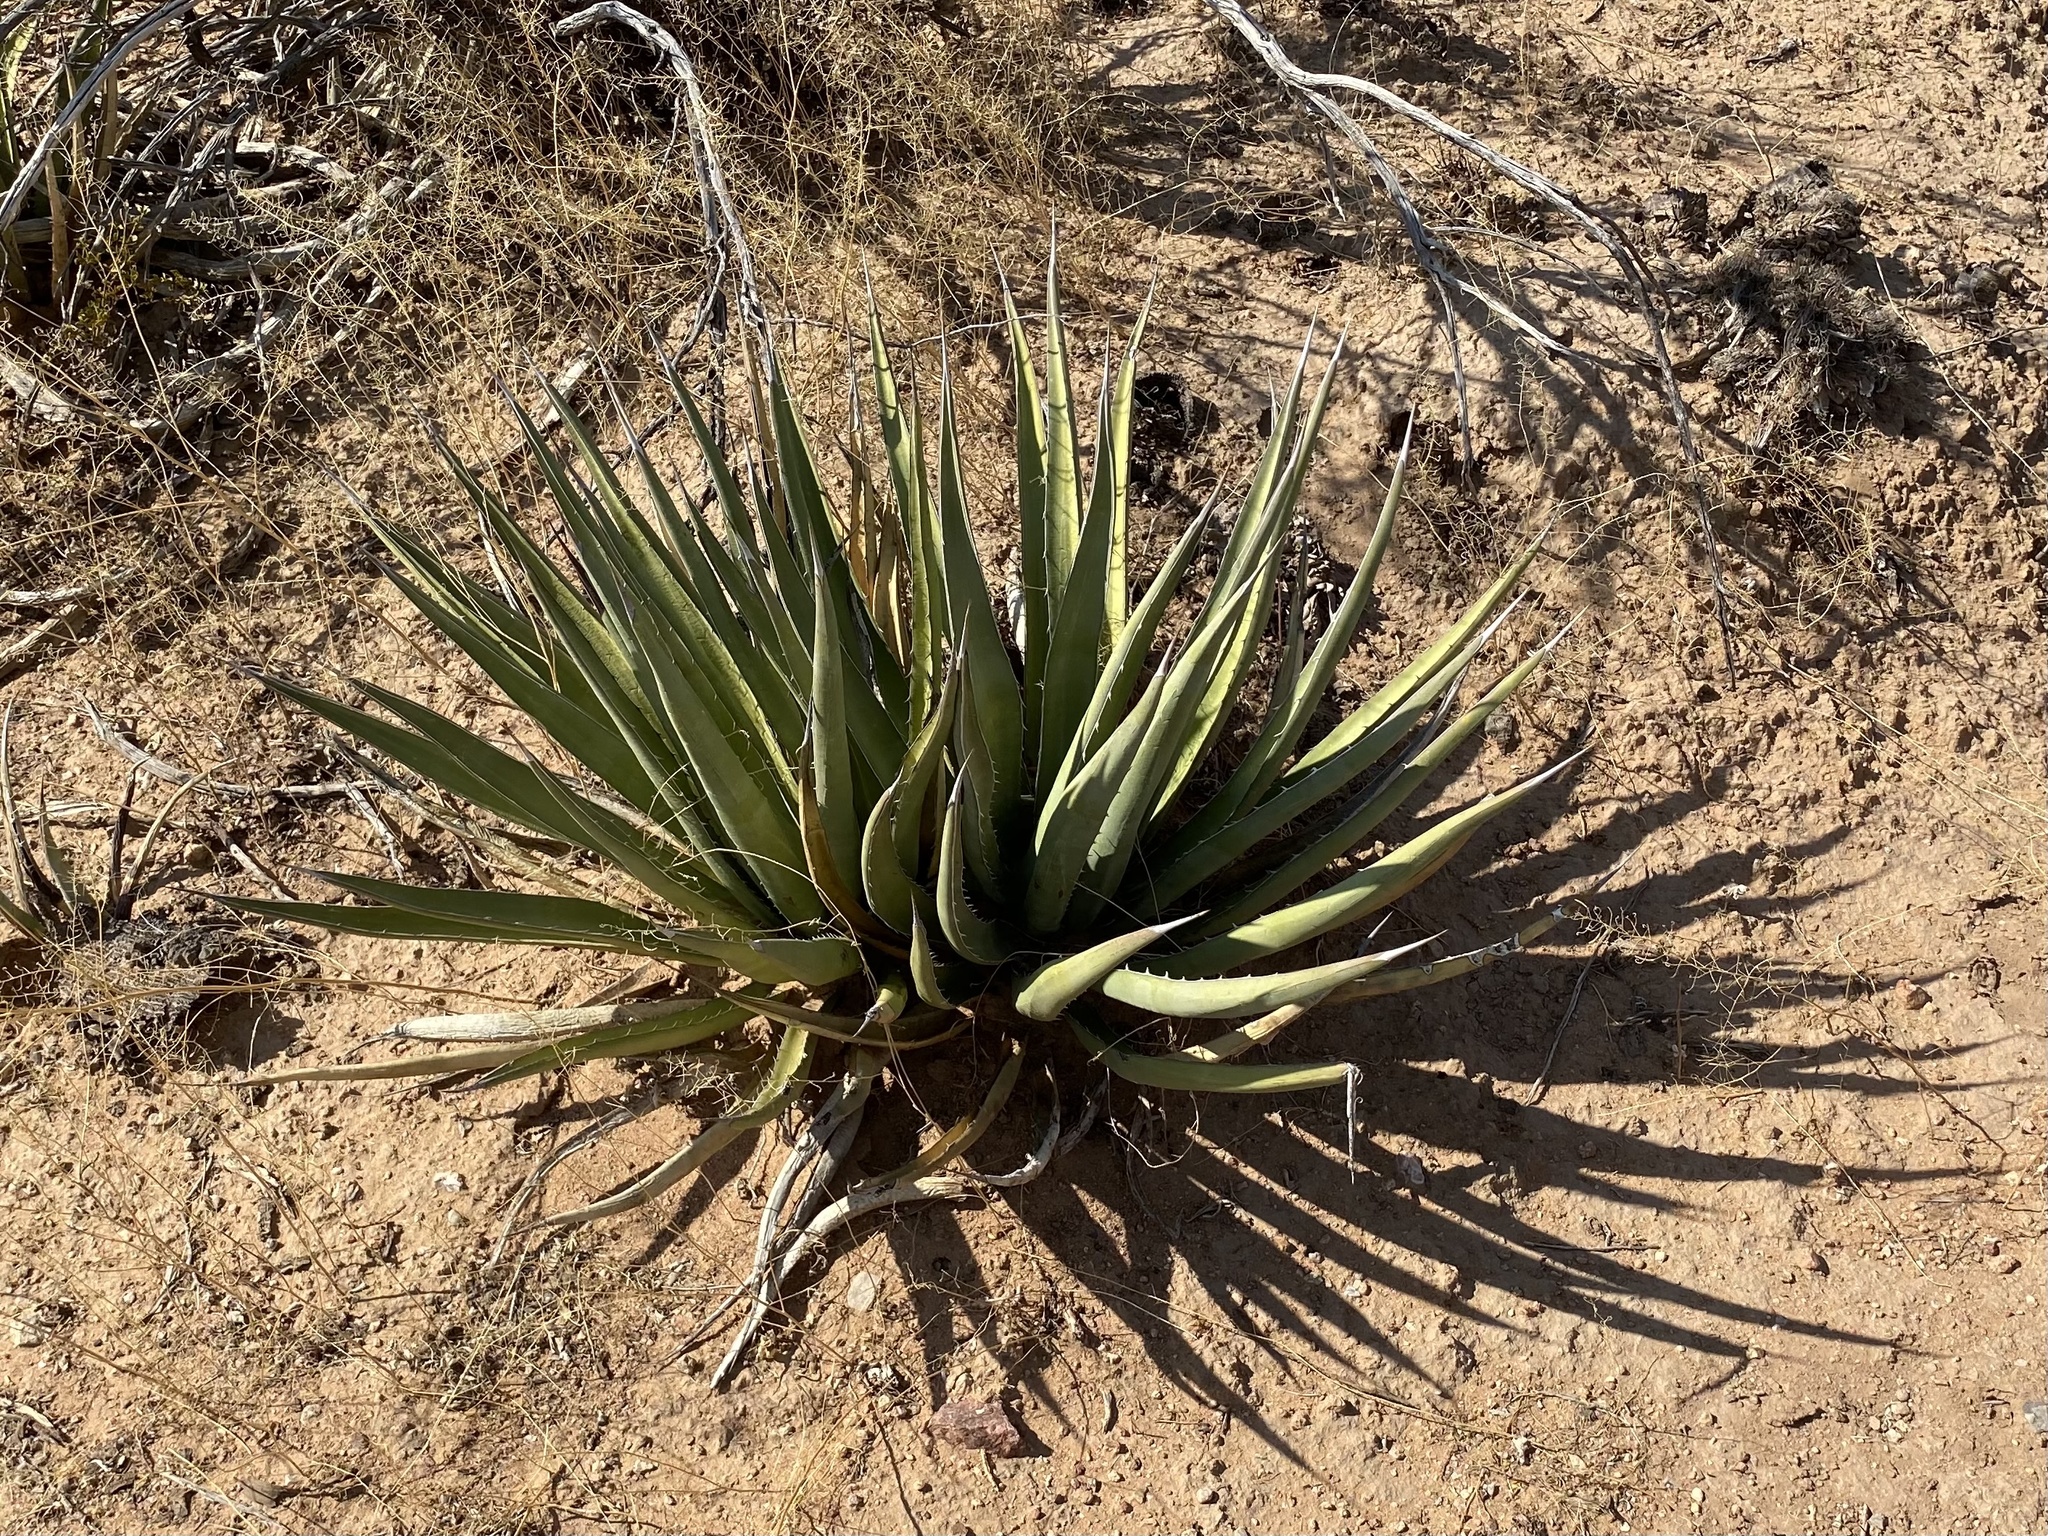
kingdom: Plantae
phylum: Tracheophyta
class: Liliopsida
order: Asparagales
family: Asparagaceae
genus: Agave
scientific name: Agave lechuguilla
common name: Lecheguilla agave
